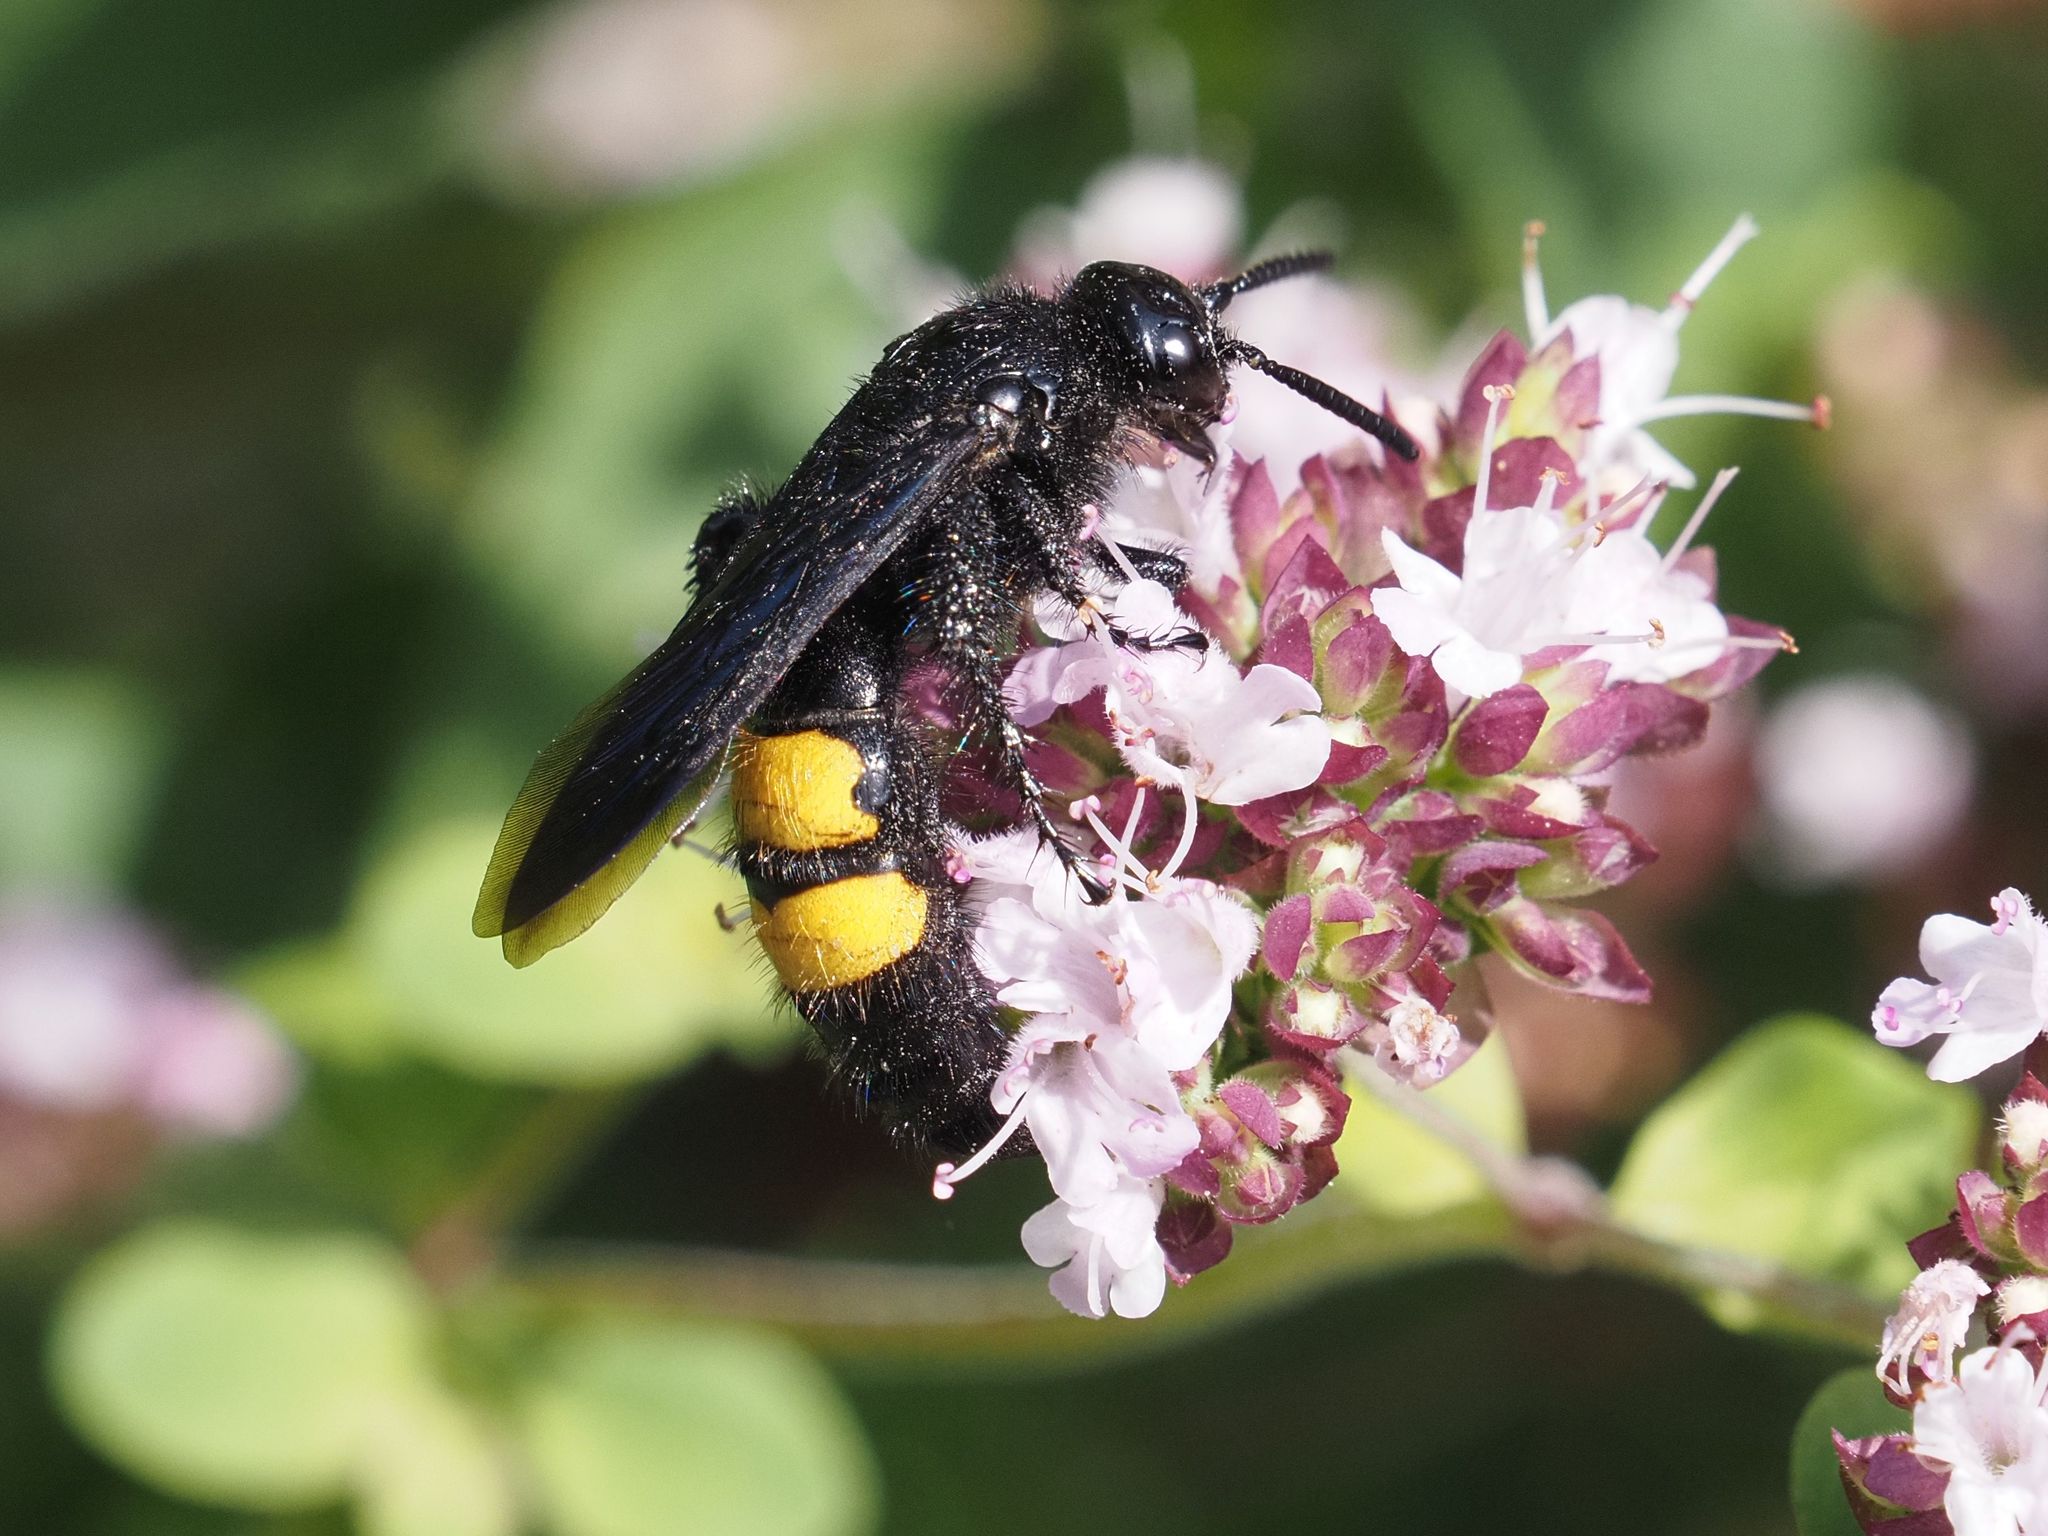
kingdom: Animalia
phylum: Arthropoda
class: Insecta
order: Hymenoptera
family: Scoliidae
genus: Scolia
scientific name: Scolia hirta
